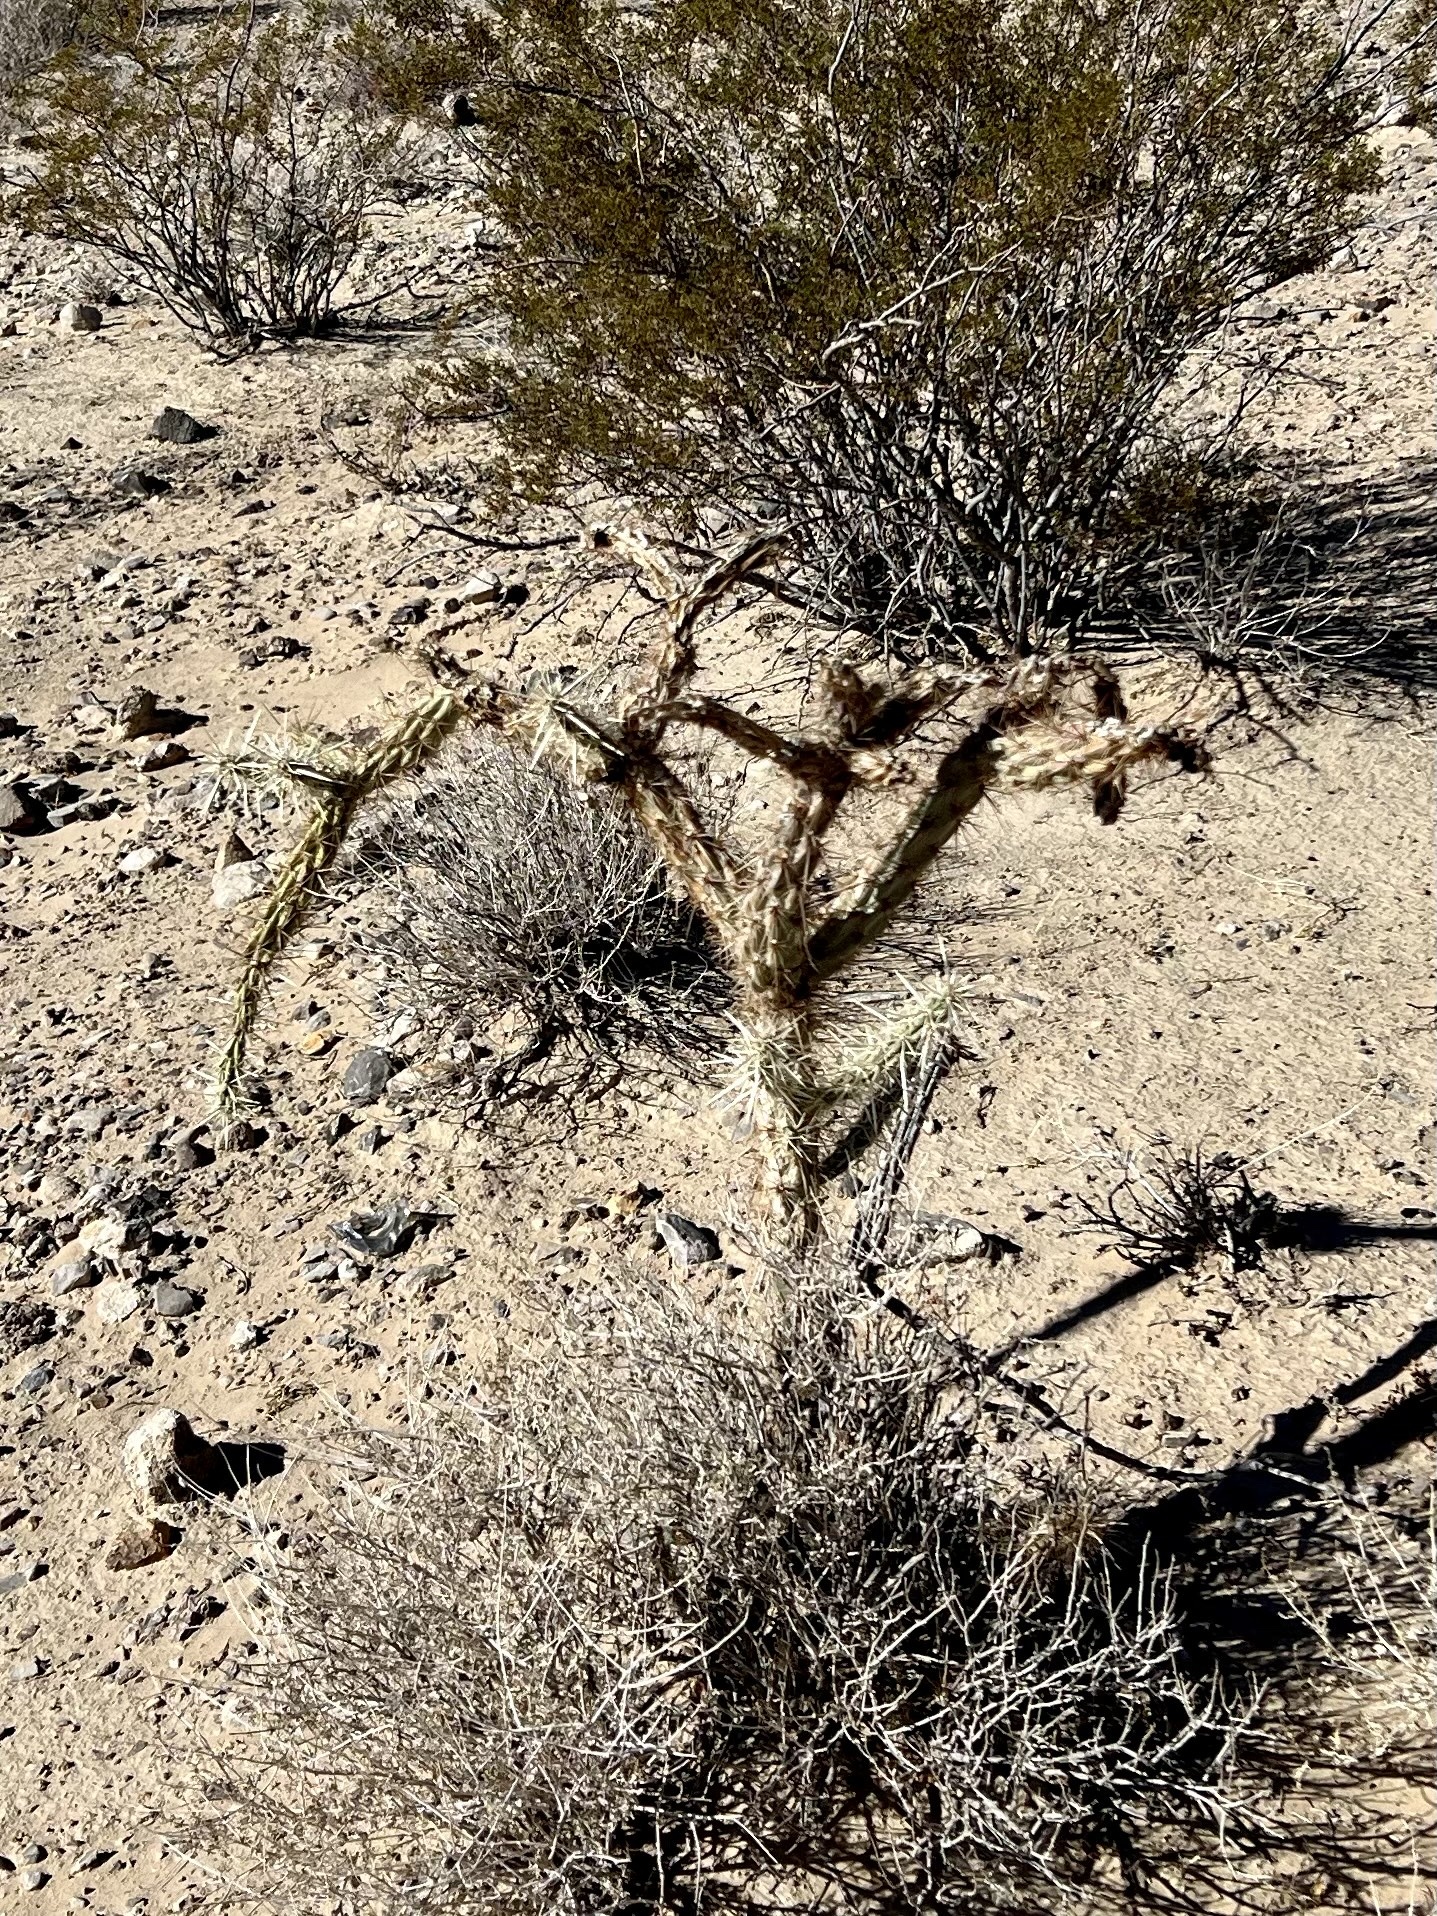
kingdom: Plantae
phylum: Tracheophyta
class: Magnoliopsida
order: Caryophyllales
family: Cactaceae
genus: Cylindropuntia
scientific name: Cylindropuntia acanthocarpa
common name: Buckhorn cholla
